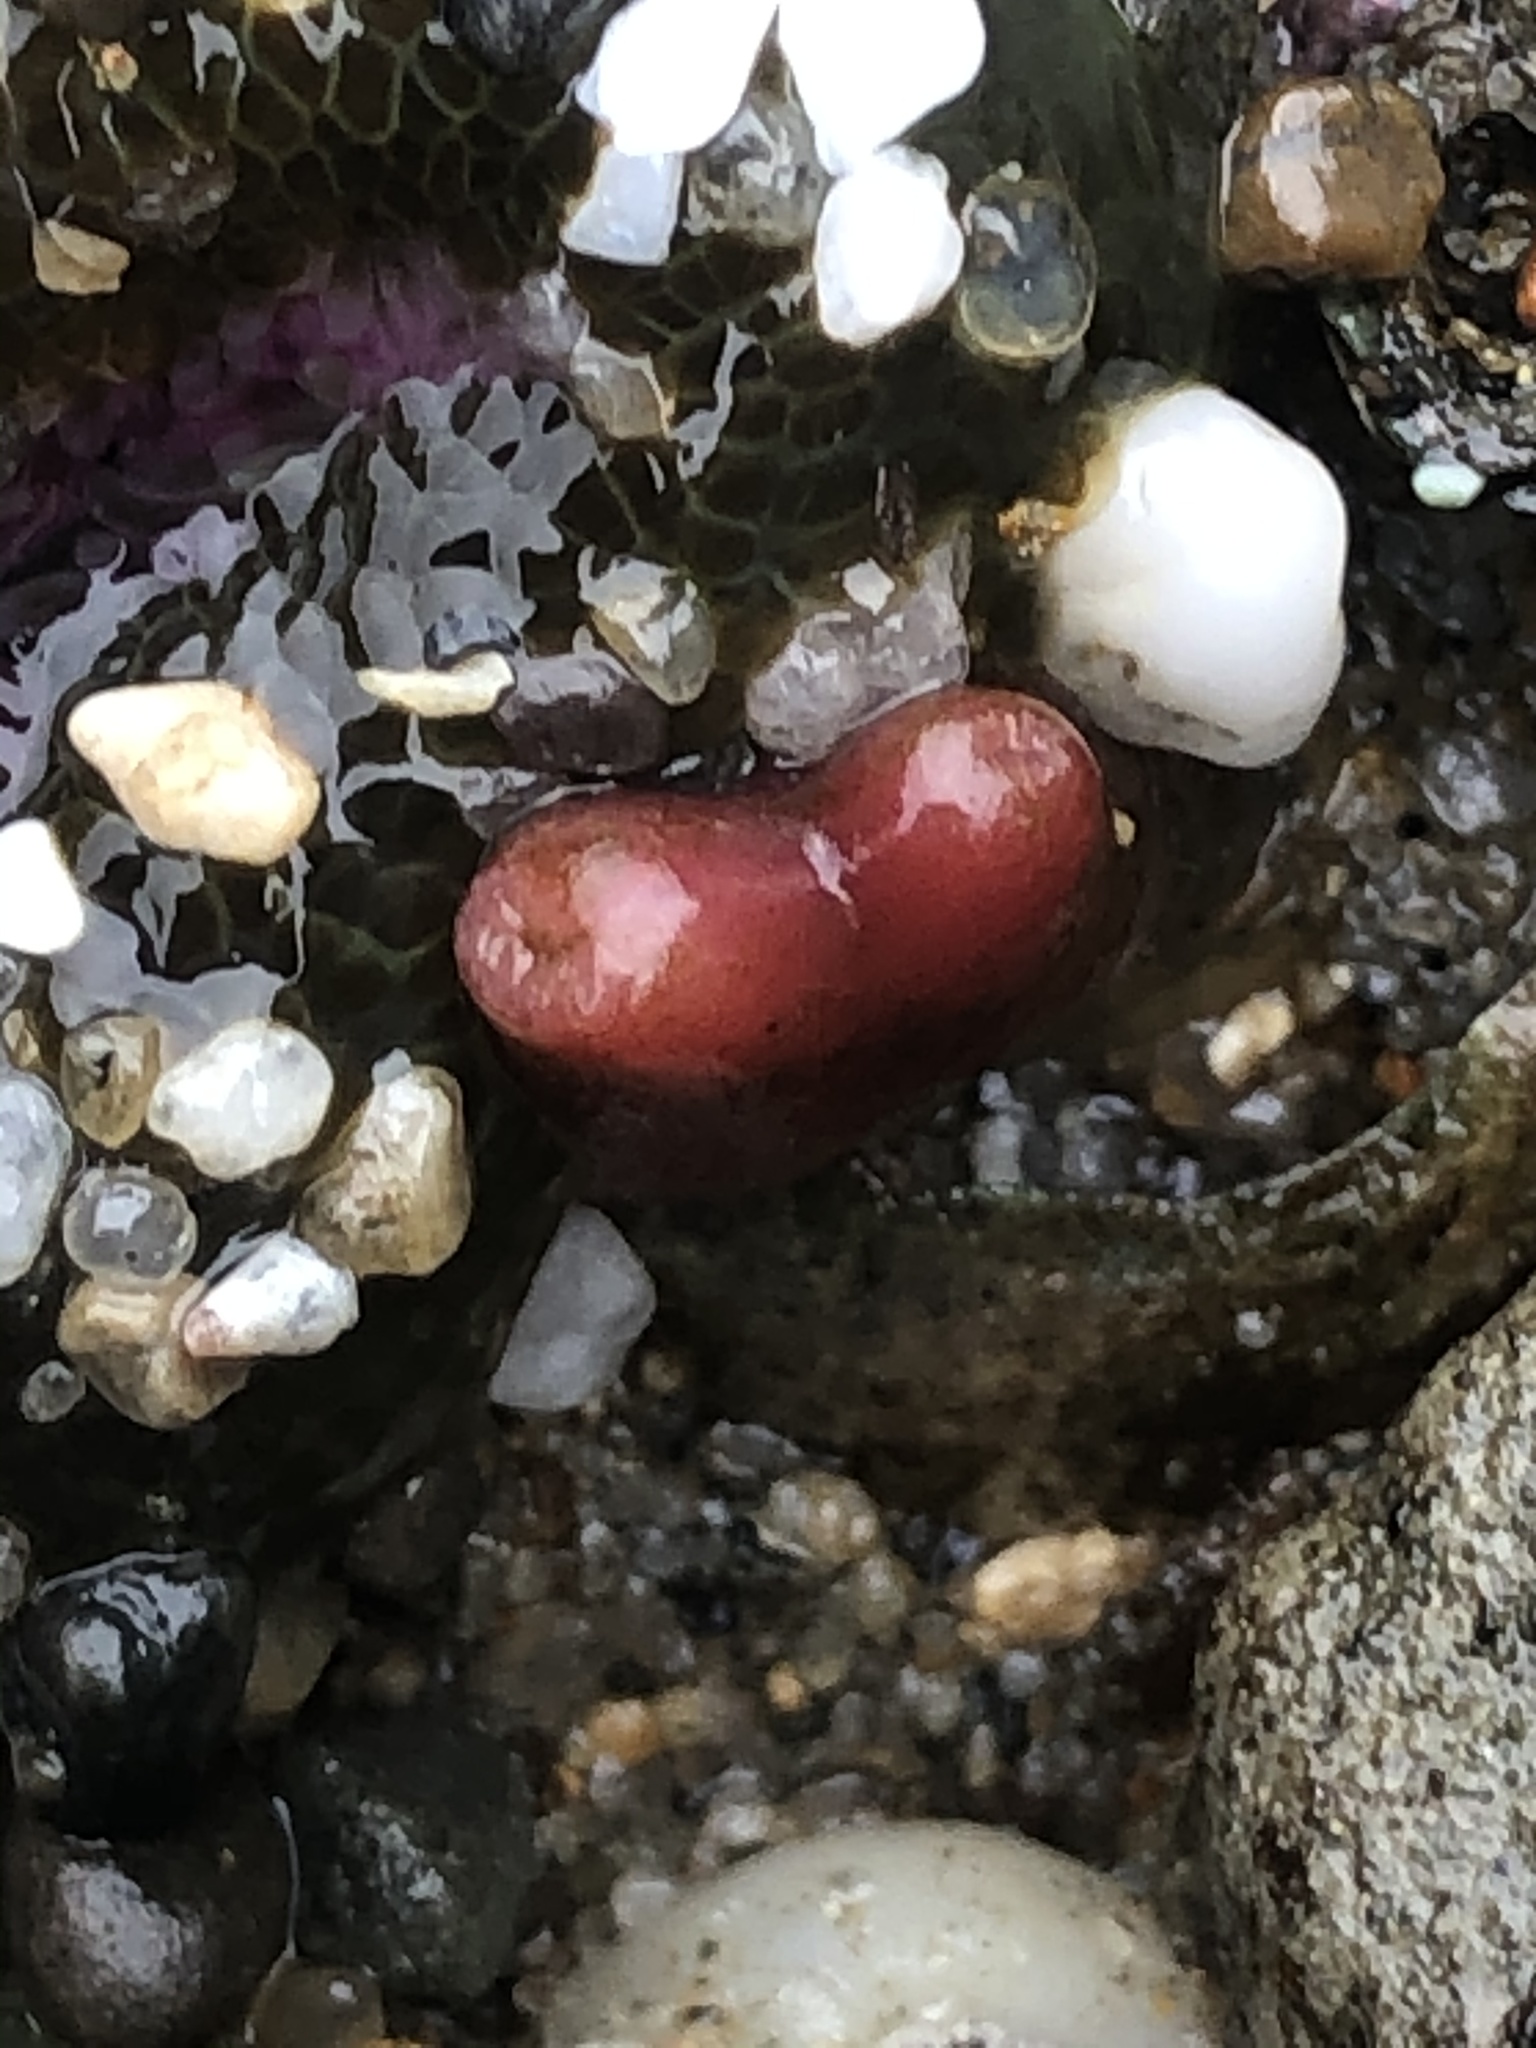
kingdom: Animalia
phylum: Mollusca
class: Bivalvia
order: Adapedonta
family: Hiatellidae
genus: Hiatella
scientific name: Hiatella arctica
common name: Arctic hiatella
